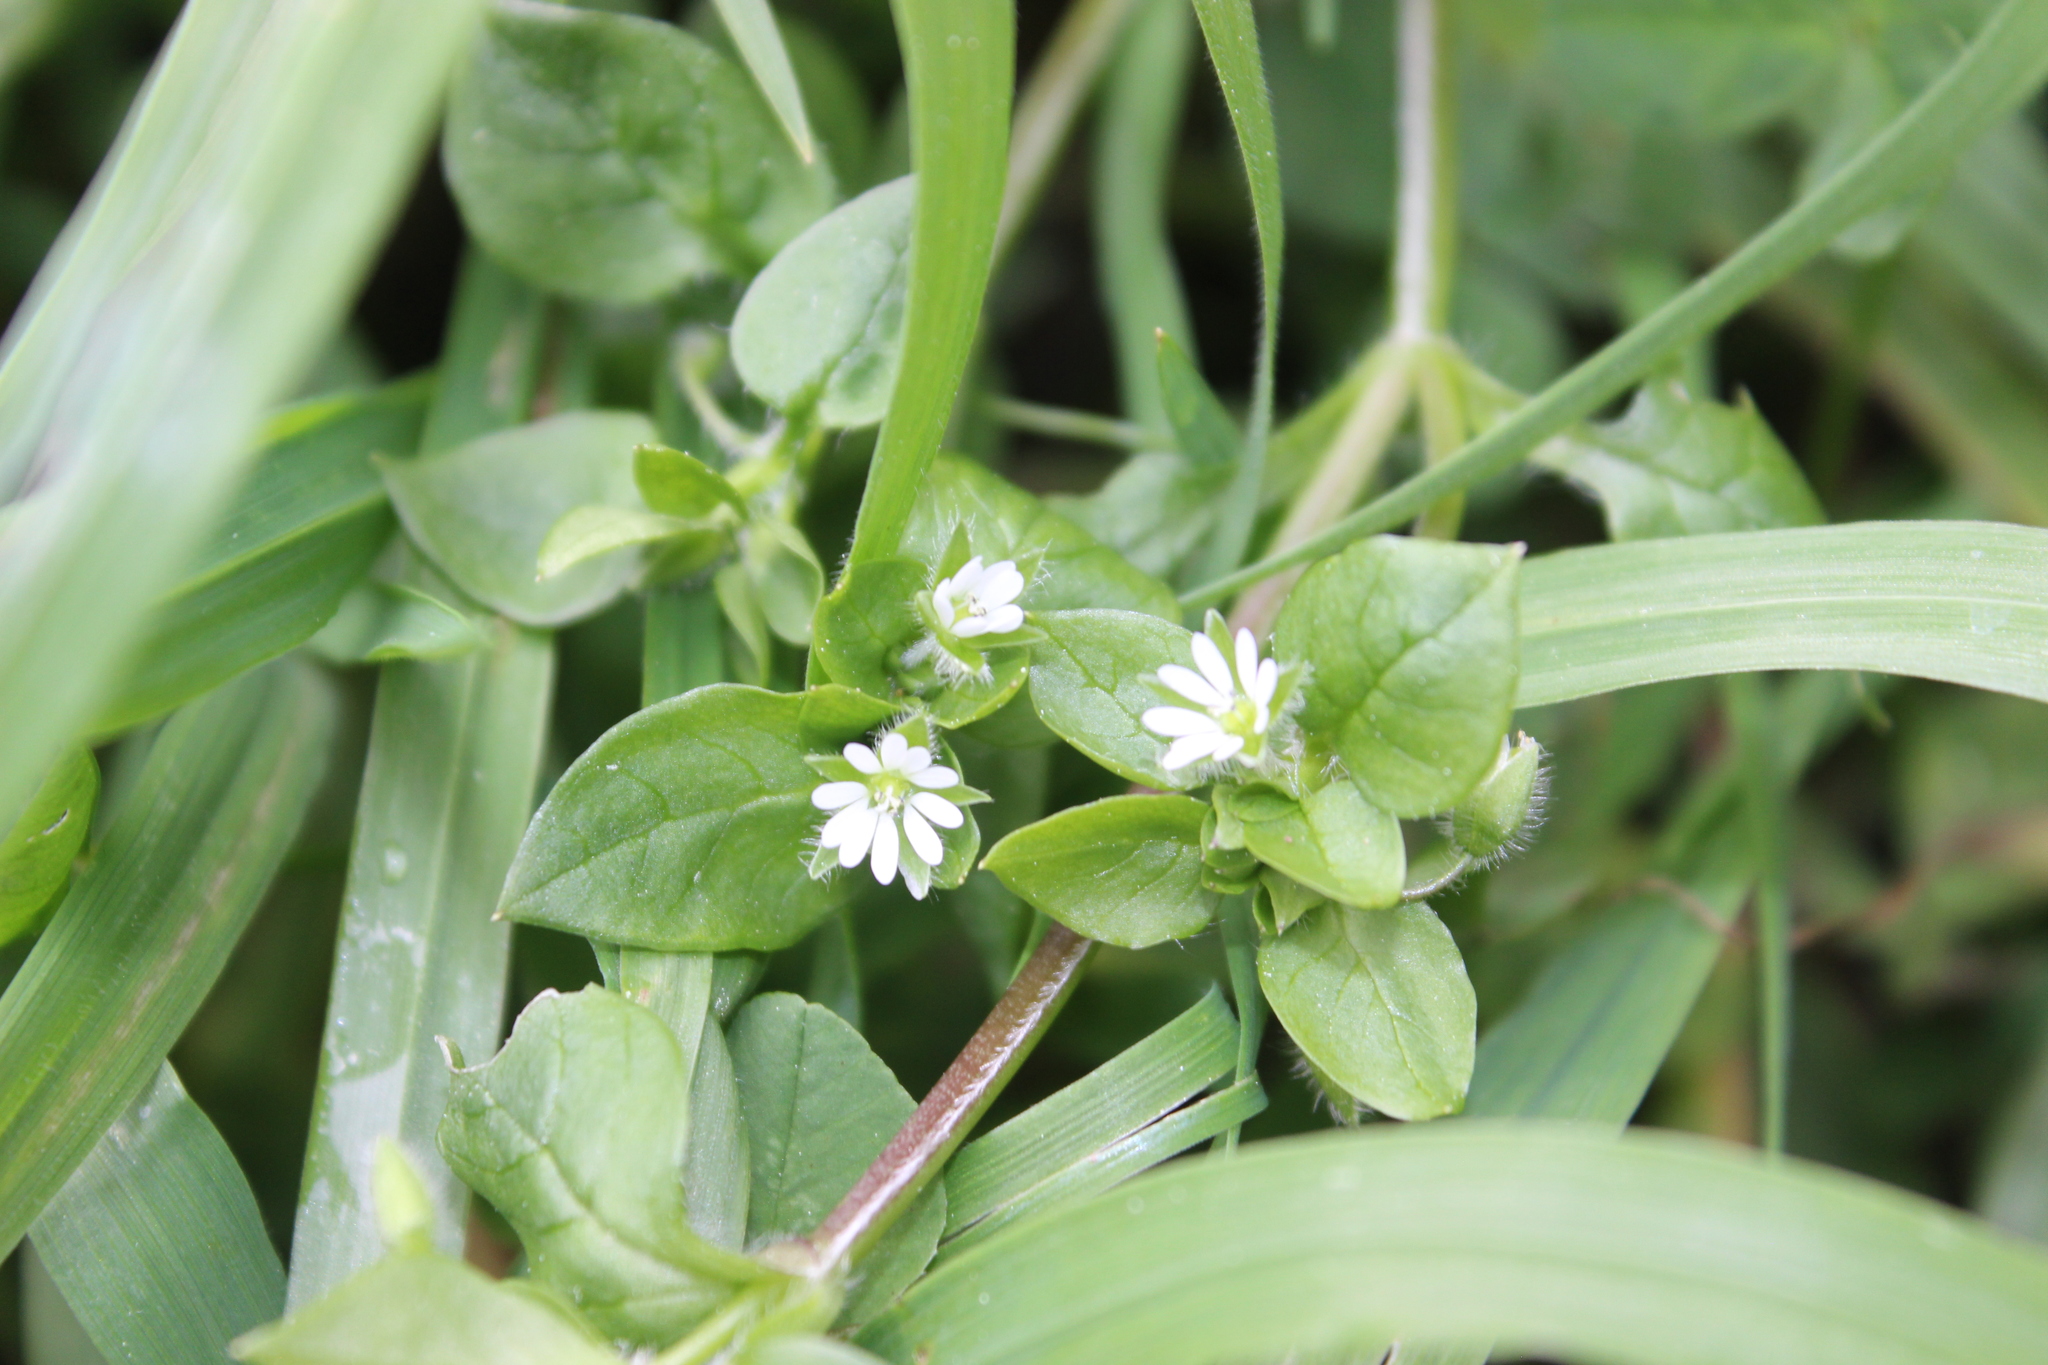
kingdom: Plantae
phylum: Tracheophyta
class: Magnoliopsida
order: Caryophyllales
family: Caryophyllaceae
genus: Stellaria
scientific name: Stellaria media
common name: Common chickweed
